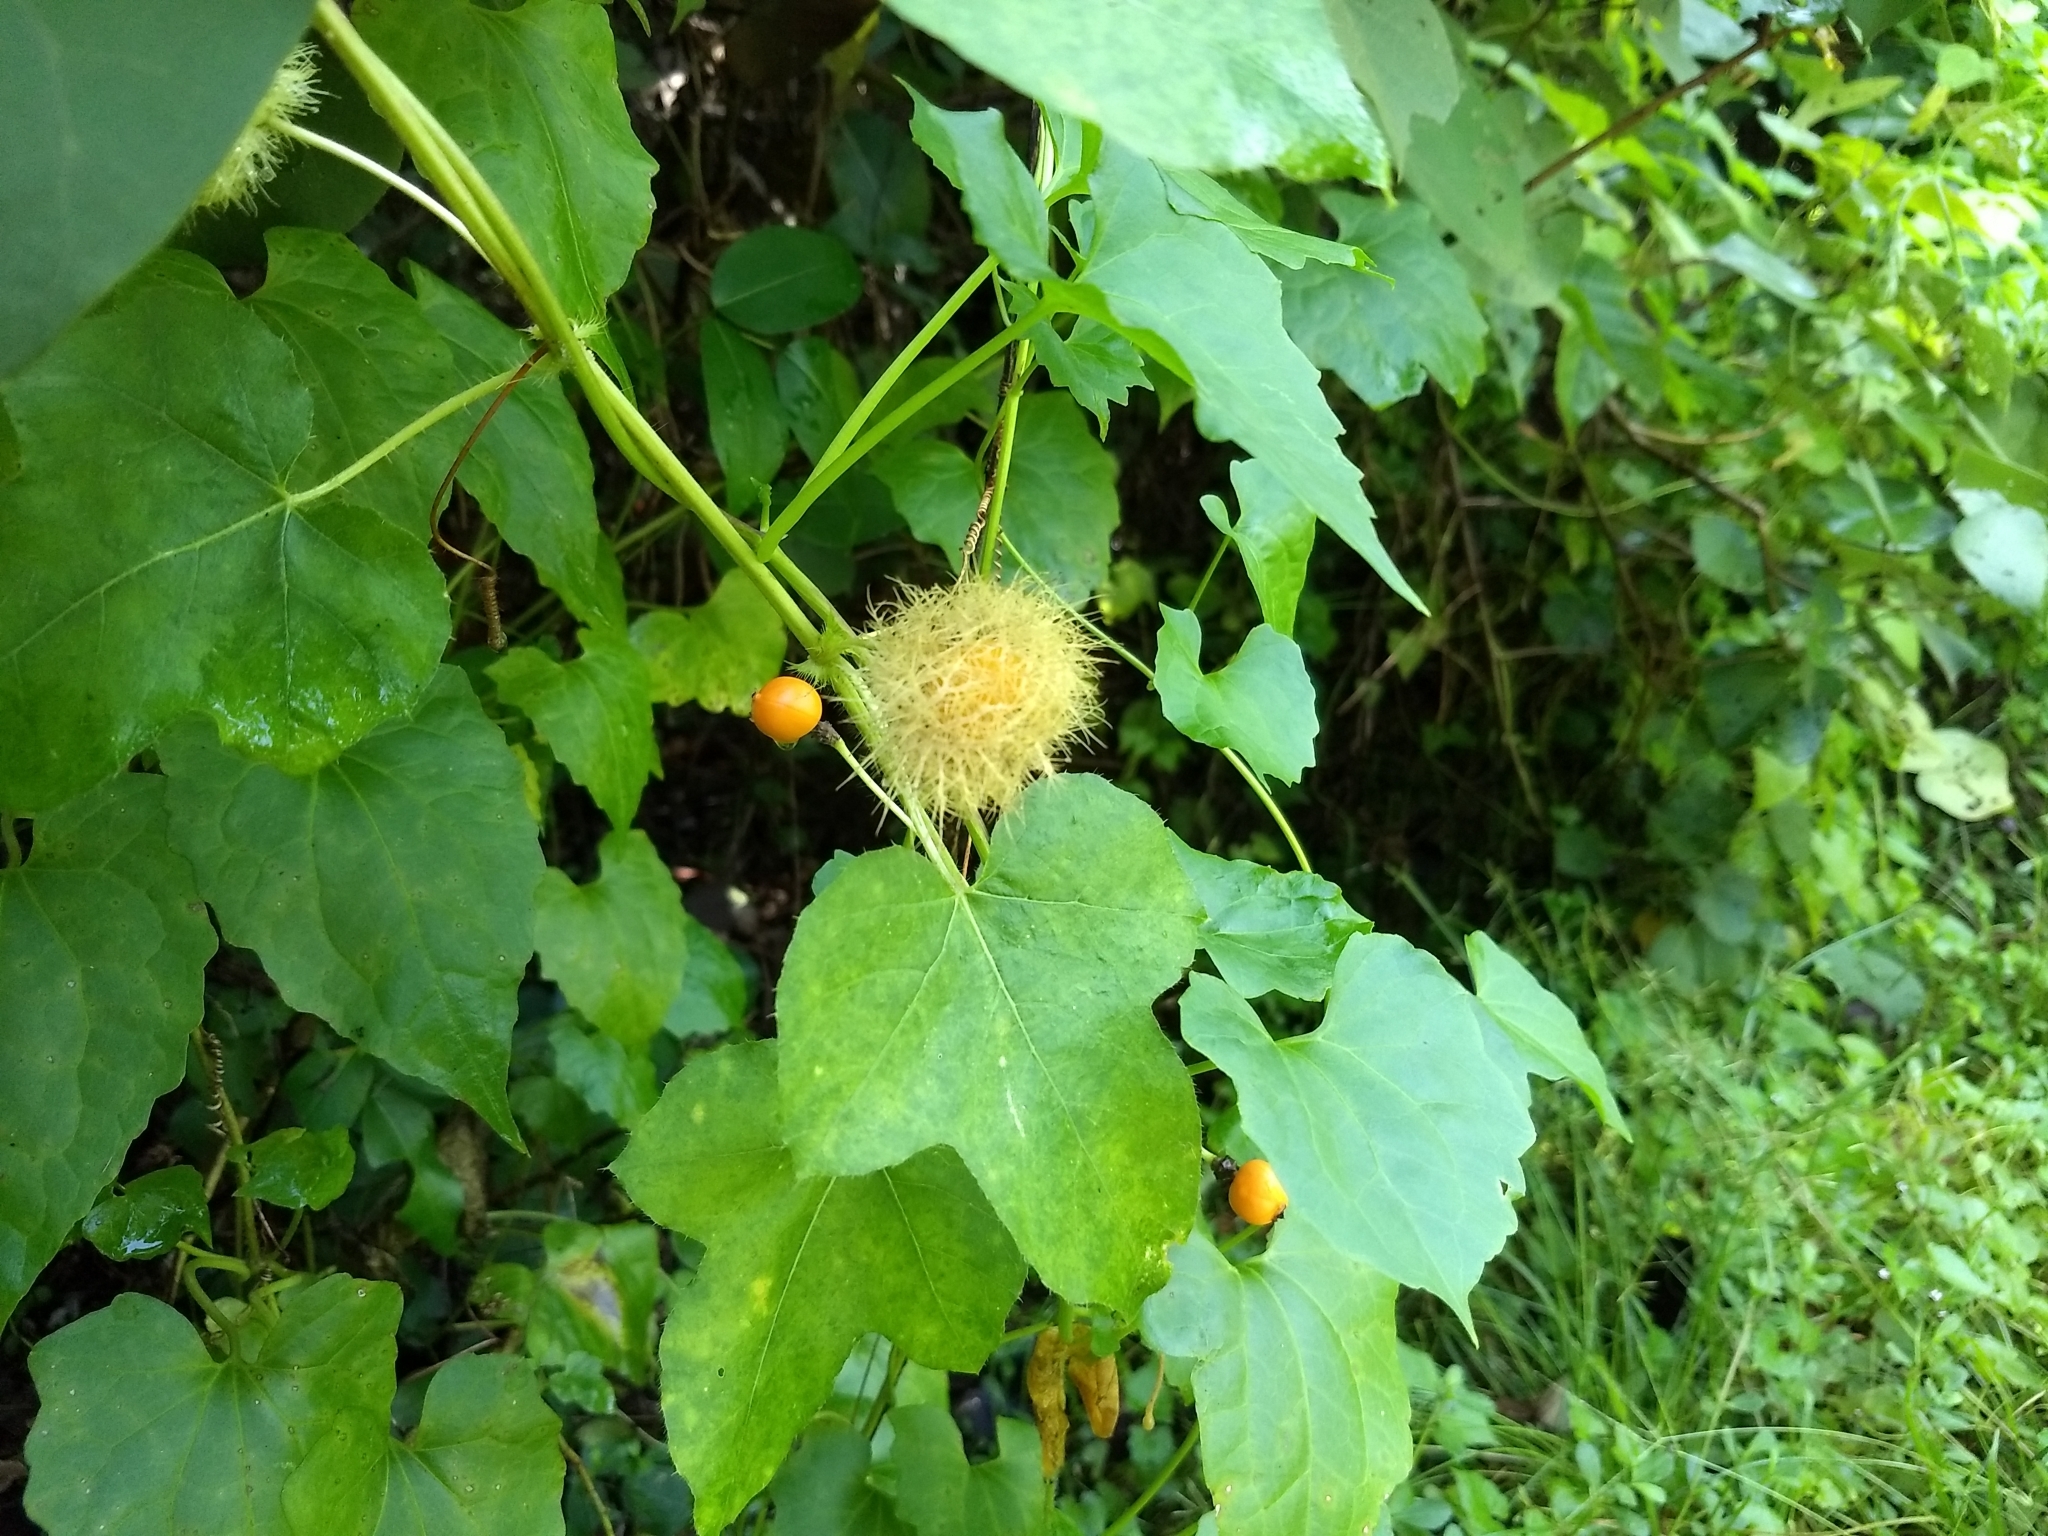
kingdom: Plantae
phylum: Tracheophyta
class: Magnoliopsida
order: Malpighiales
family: Passifloraceae
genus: Passiflora
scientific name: Passiflora foetida
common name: Fetid passionflower
